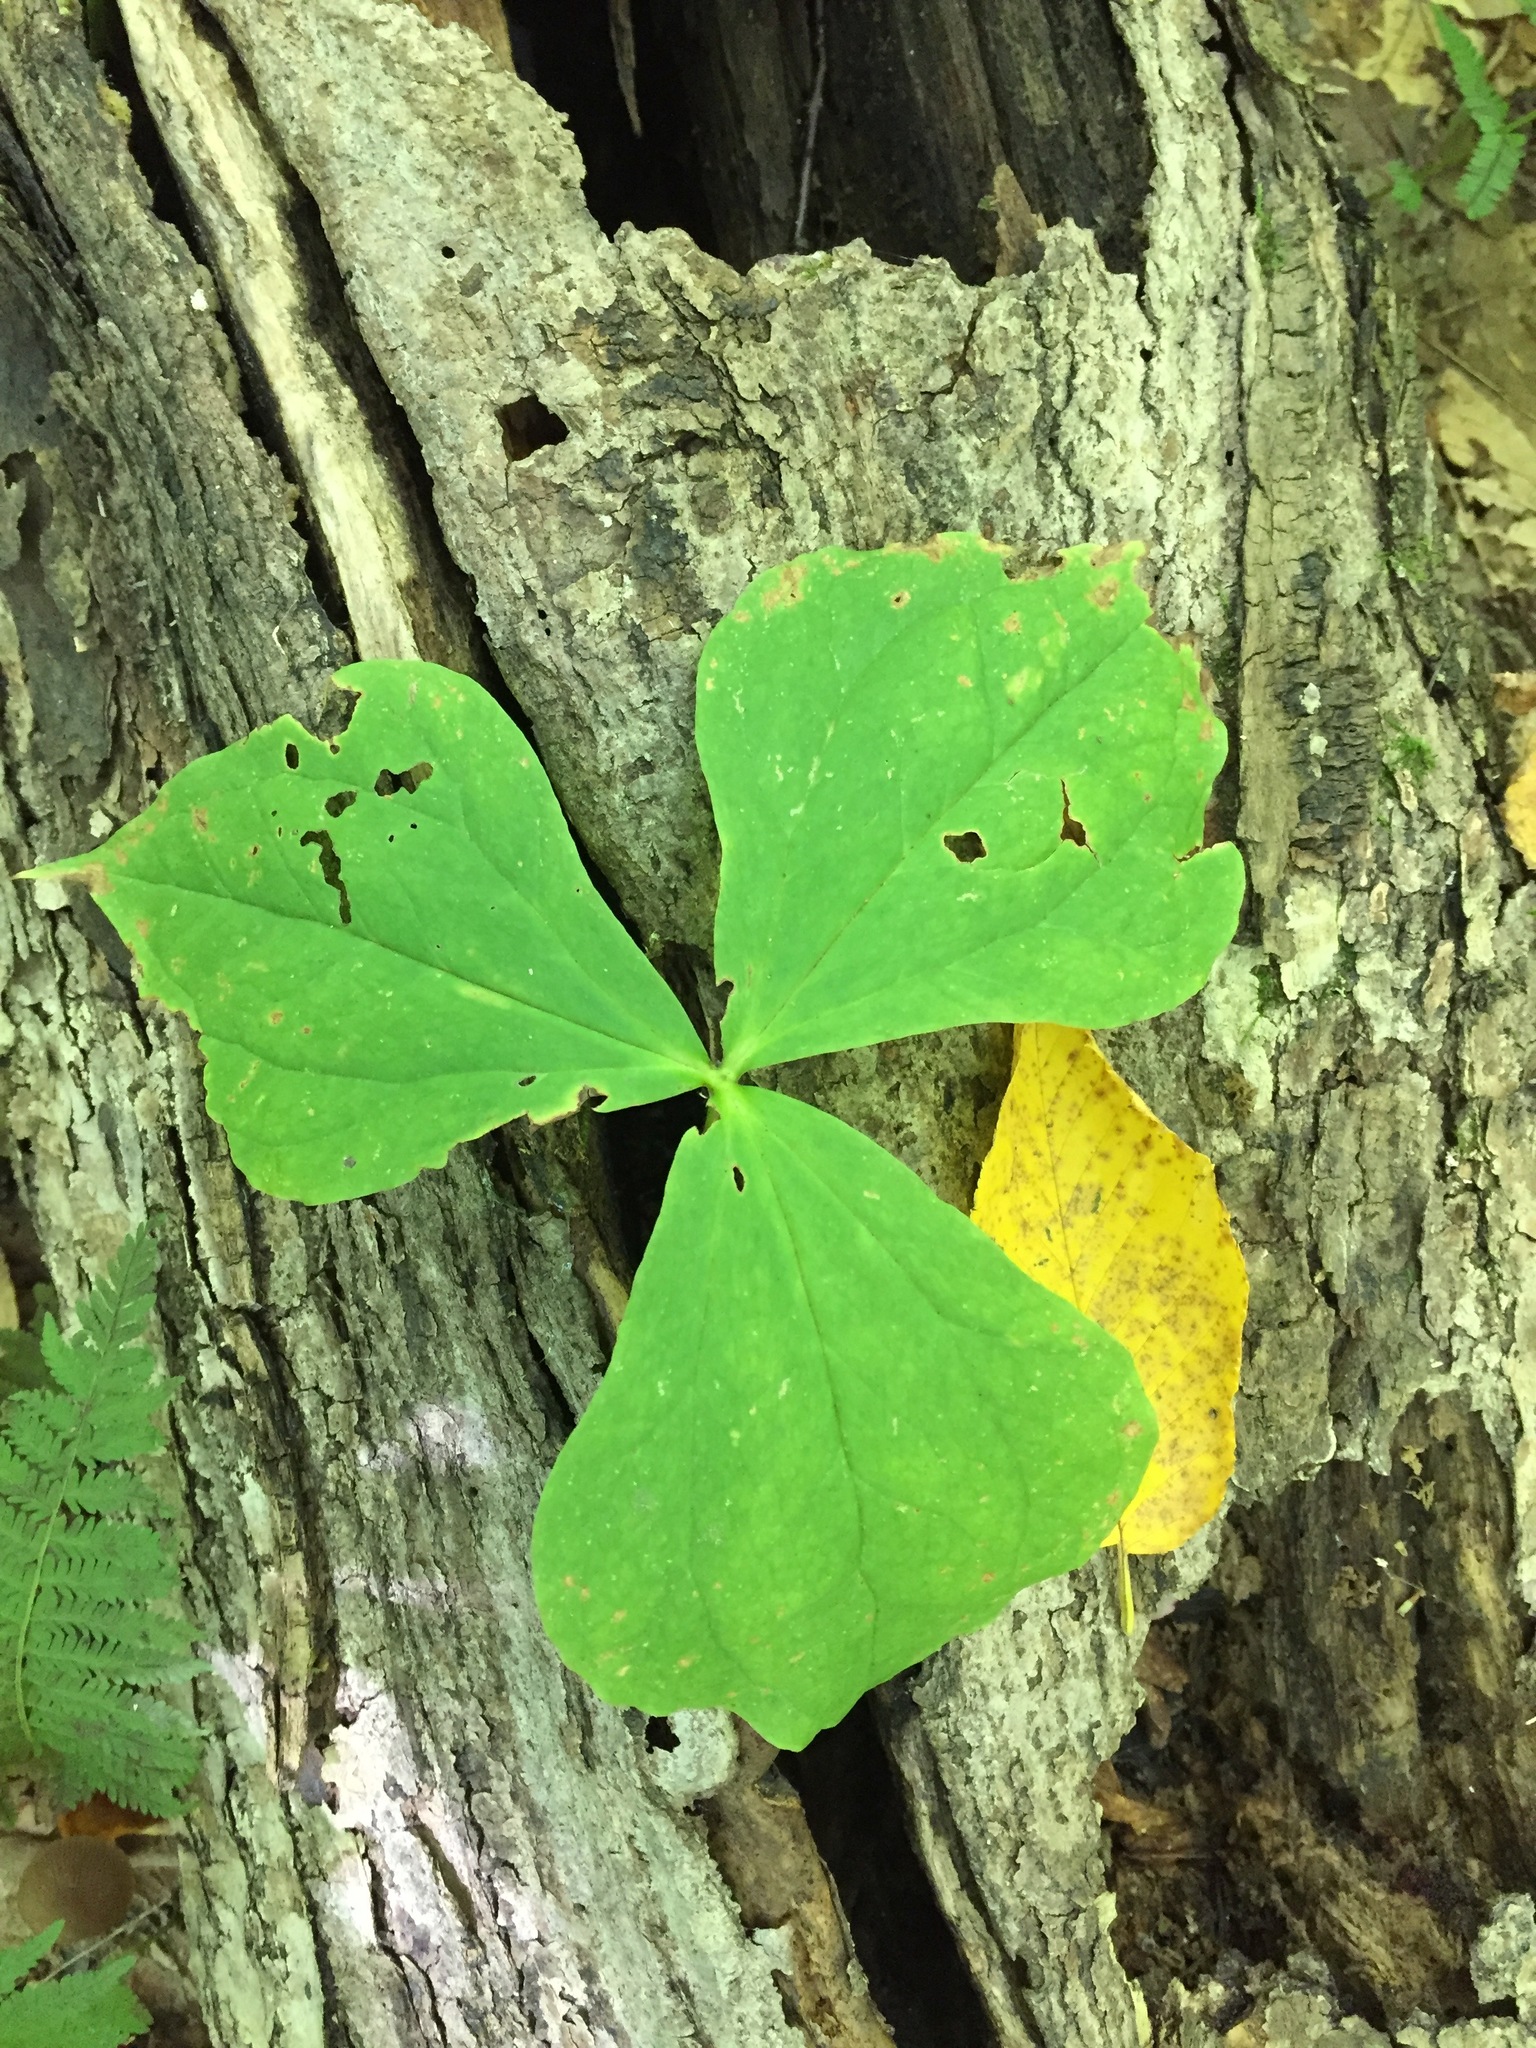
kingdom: Plantae
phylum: Tracheophyta
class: Liliopsida
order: Liliales
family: Melanthiaceae
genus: Trillium
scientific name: Trillium erectum
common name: Purple trillium
